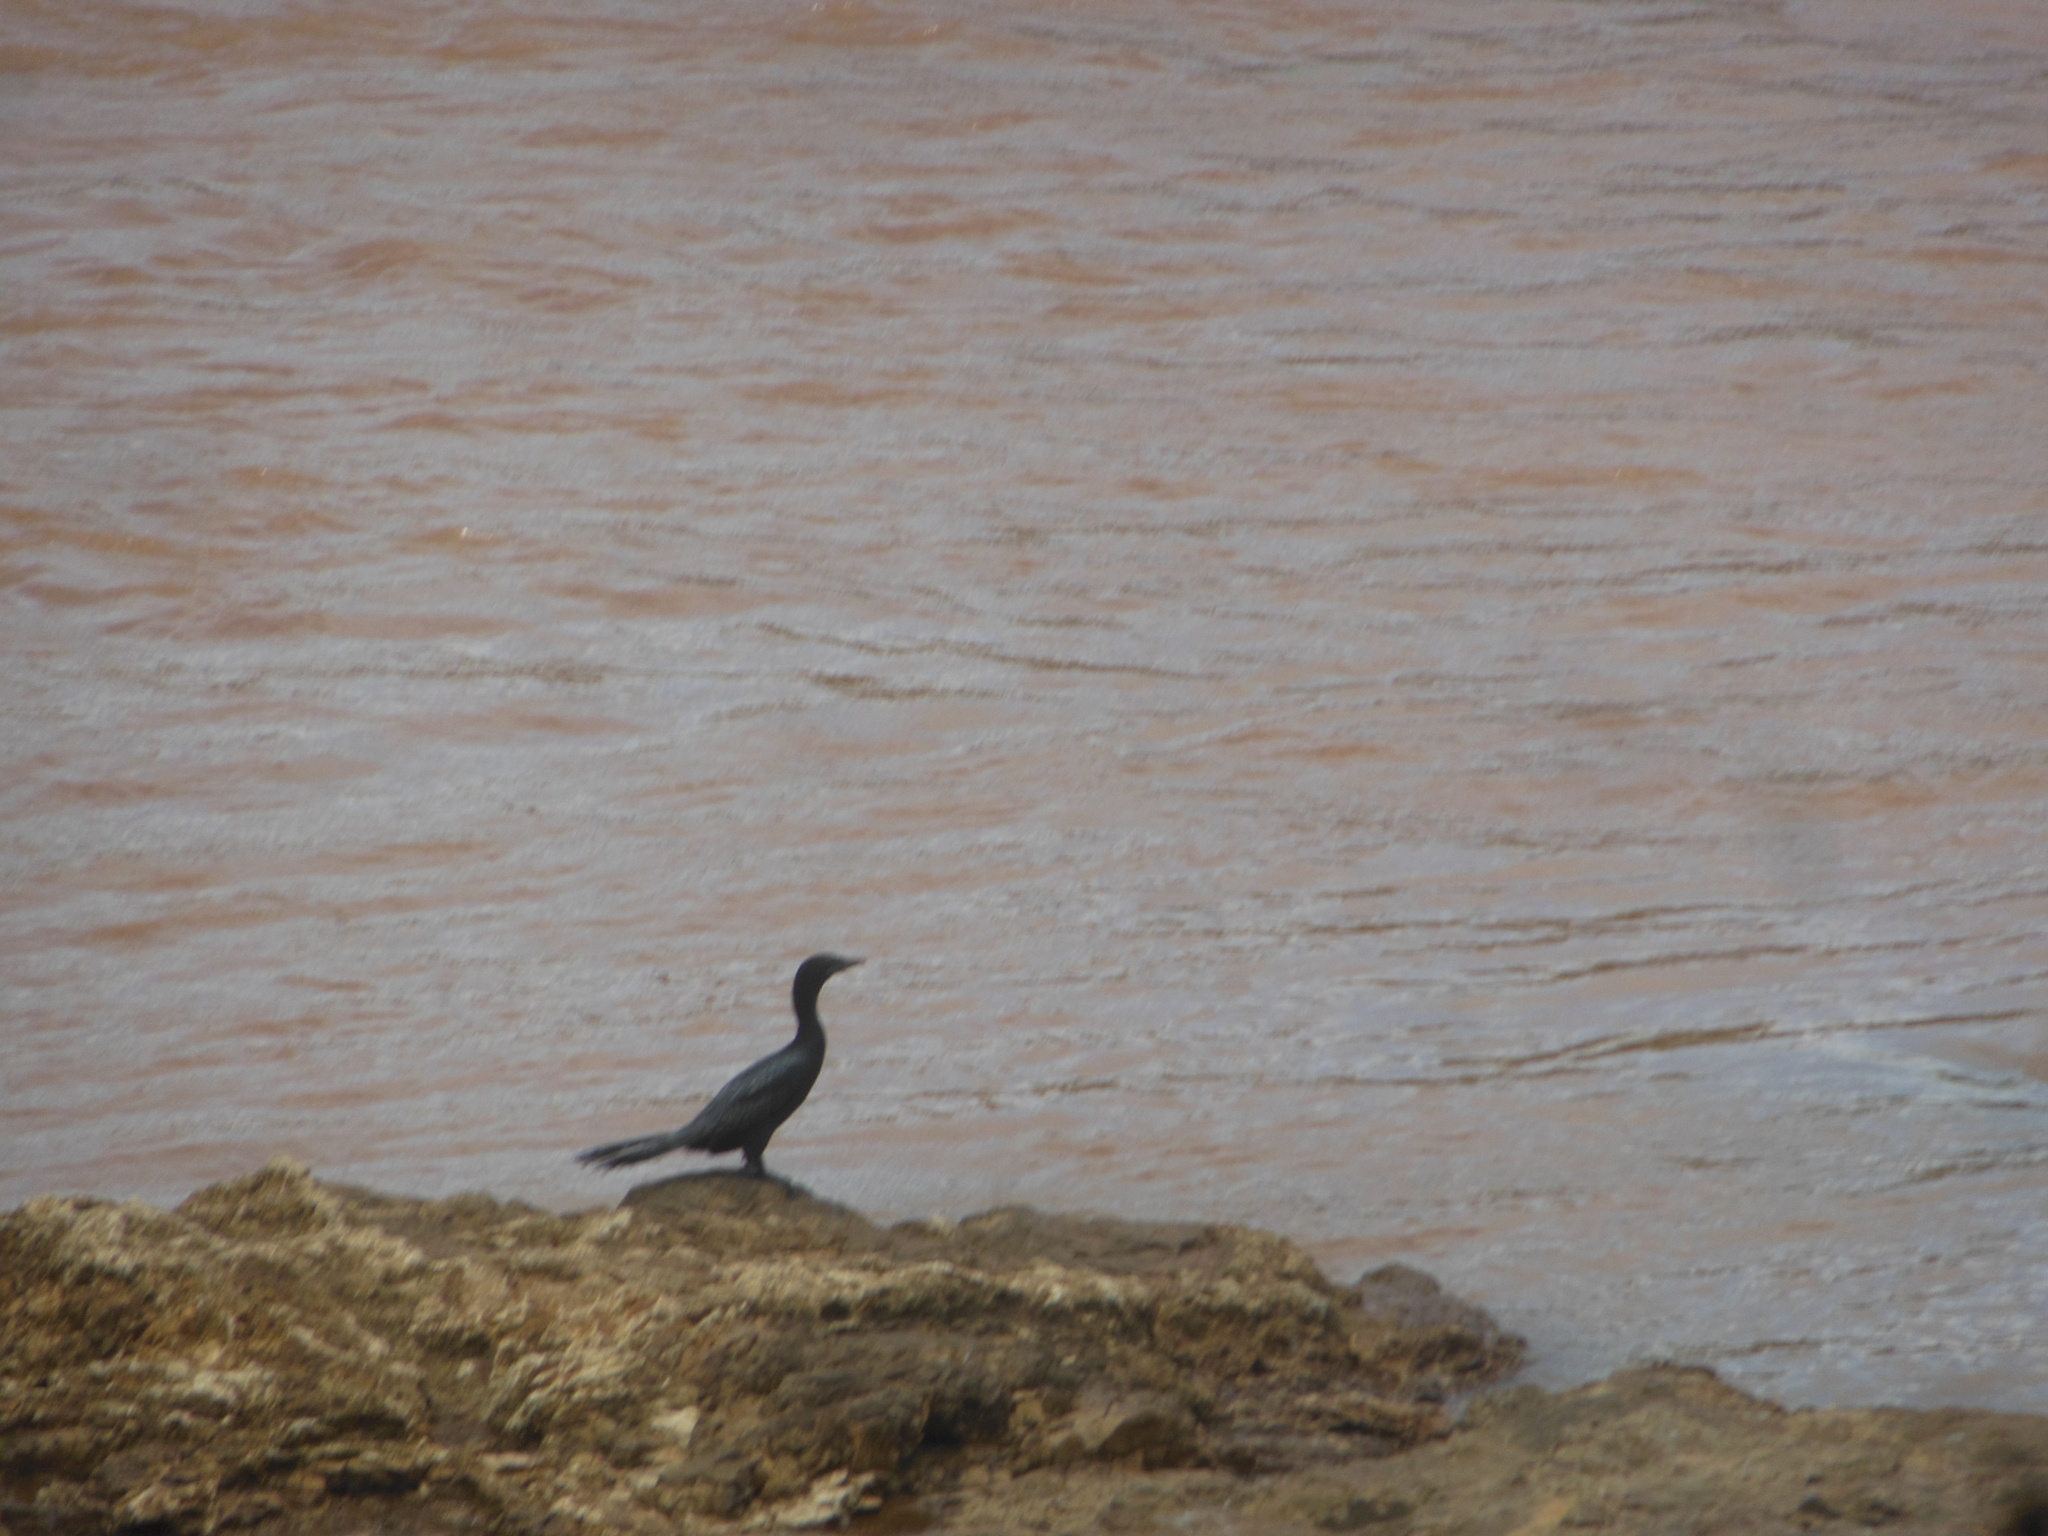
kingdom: Animalia
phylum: Chordata
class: Aves
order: Suliformes
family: Phalacrocoracidae
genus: Microcarbo
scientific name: Microcarbo niger
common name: Little cormorant
